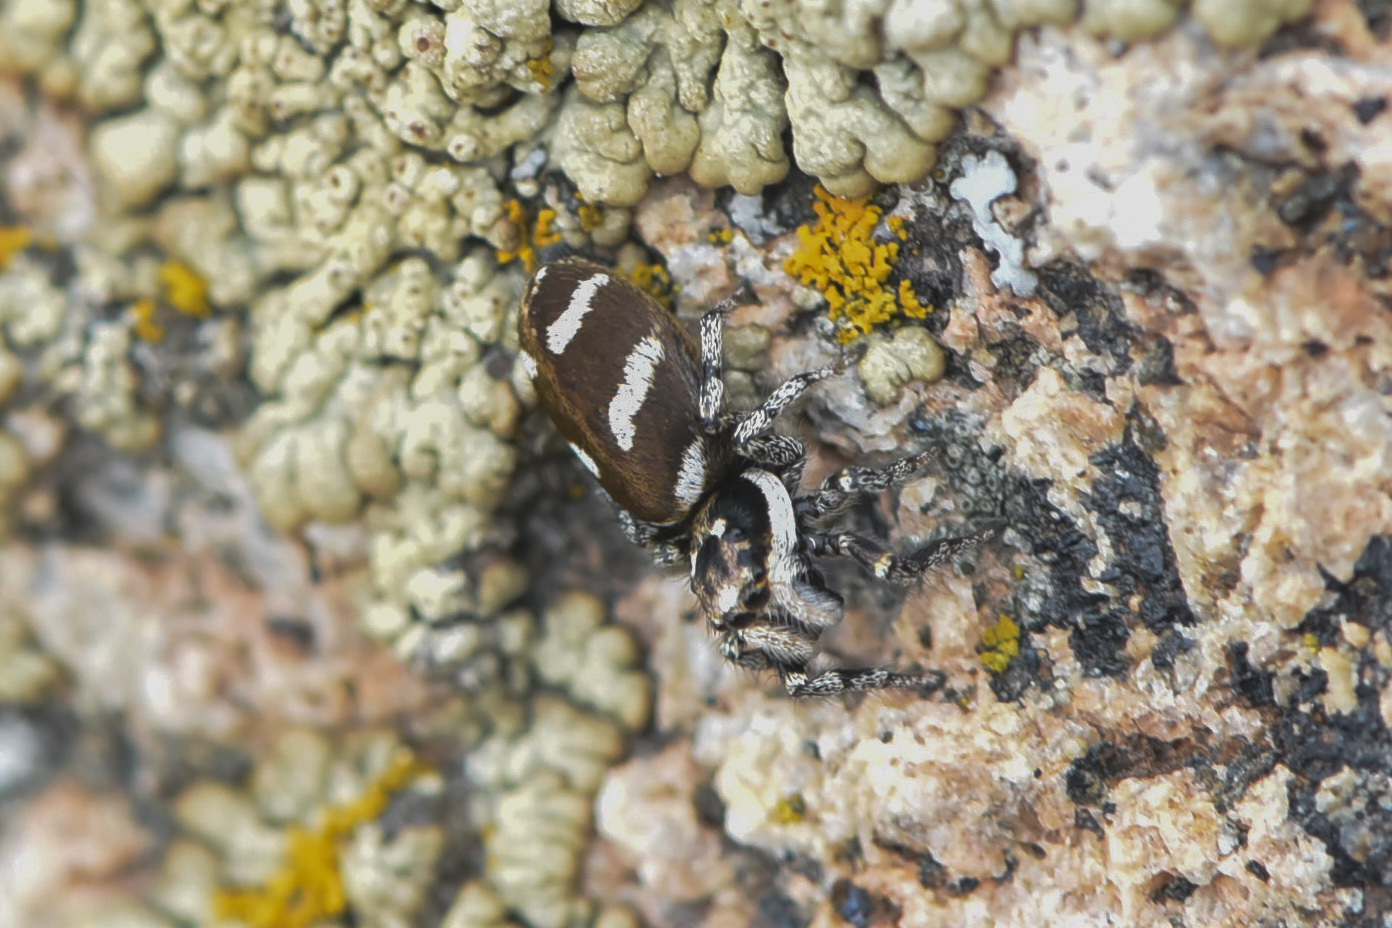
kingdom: Animalia
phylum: Arthropoda
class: Arachnida
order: Araneae
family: Salticidae
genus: Salticus
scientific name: Salticus scenicus
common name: Zebra jumper
